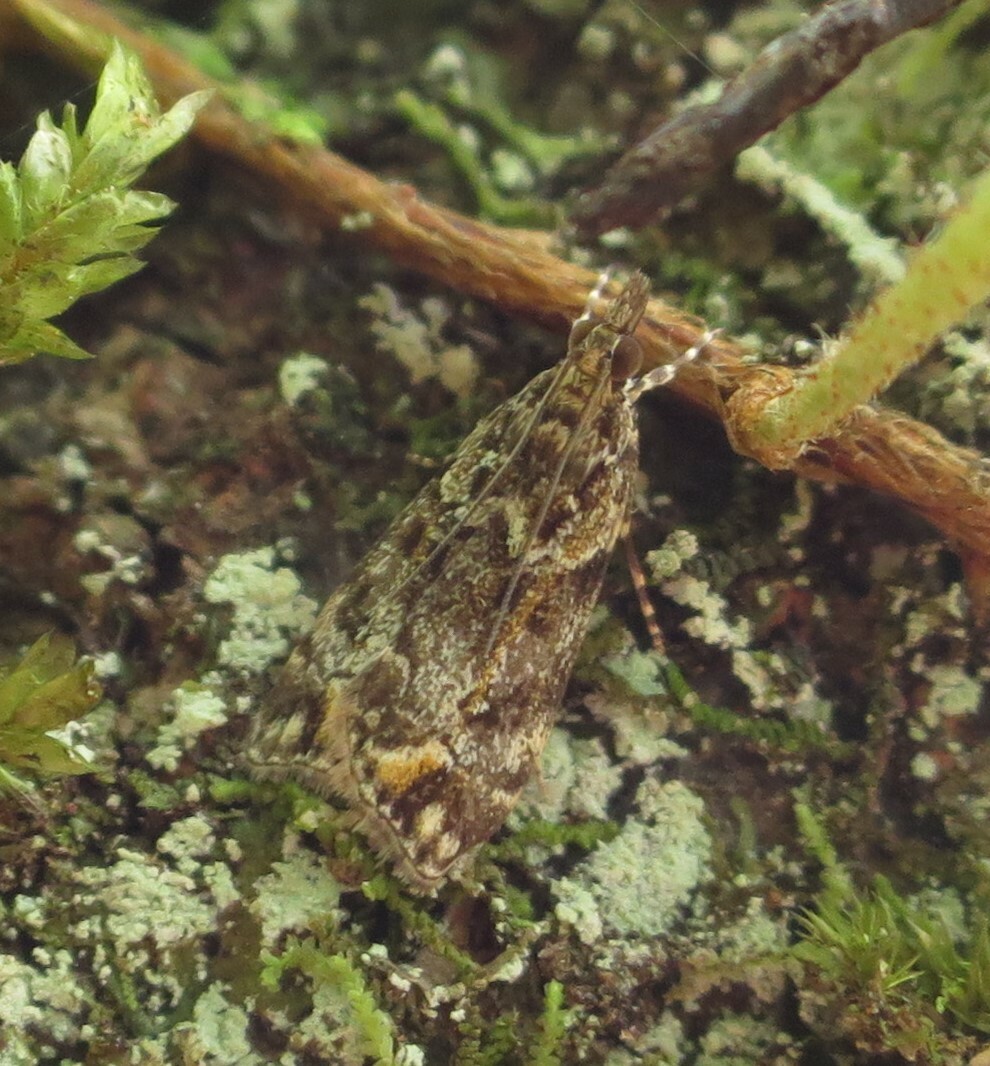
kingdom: Animalia
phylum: Arthropoda
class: Insecta
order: Lepidoptera
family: Crambidae
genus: Eudonia
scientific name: Eudonia minualis
